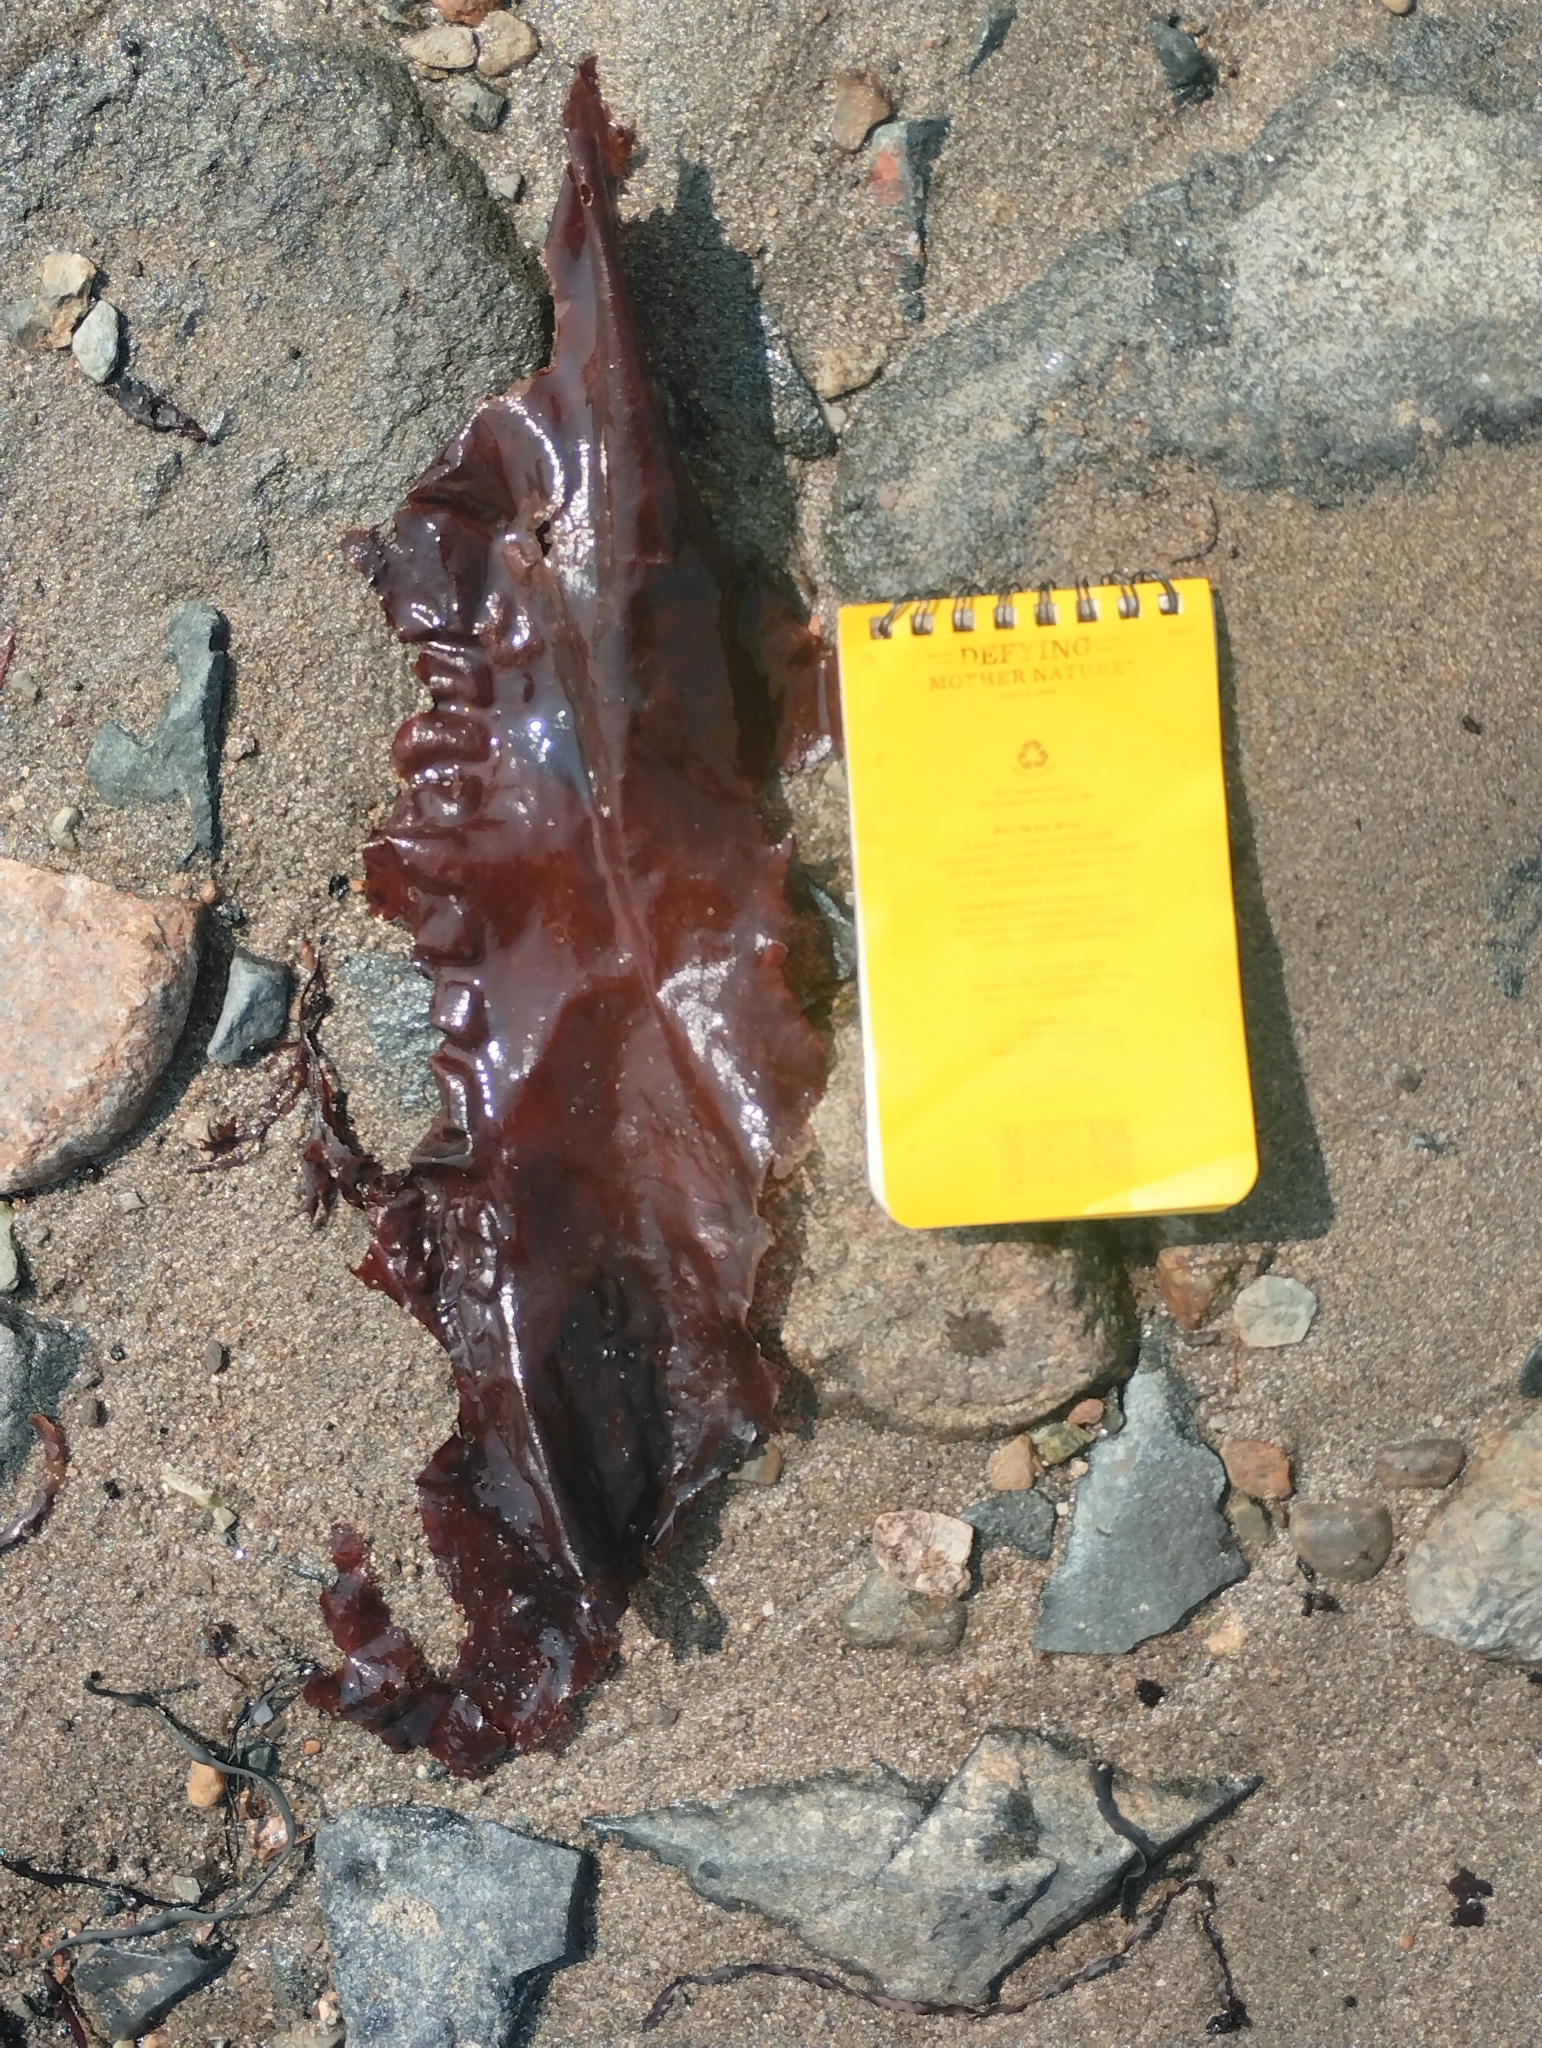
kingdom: Chromista
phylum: Ochrophyta
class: Phaeophyceae
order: Laminariales
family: Laminariaceae
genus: Saccharina
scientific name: Saccharina latissima
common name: Poor man's weather glass
